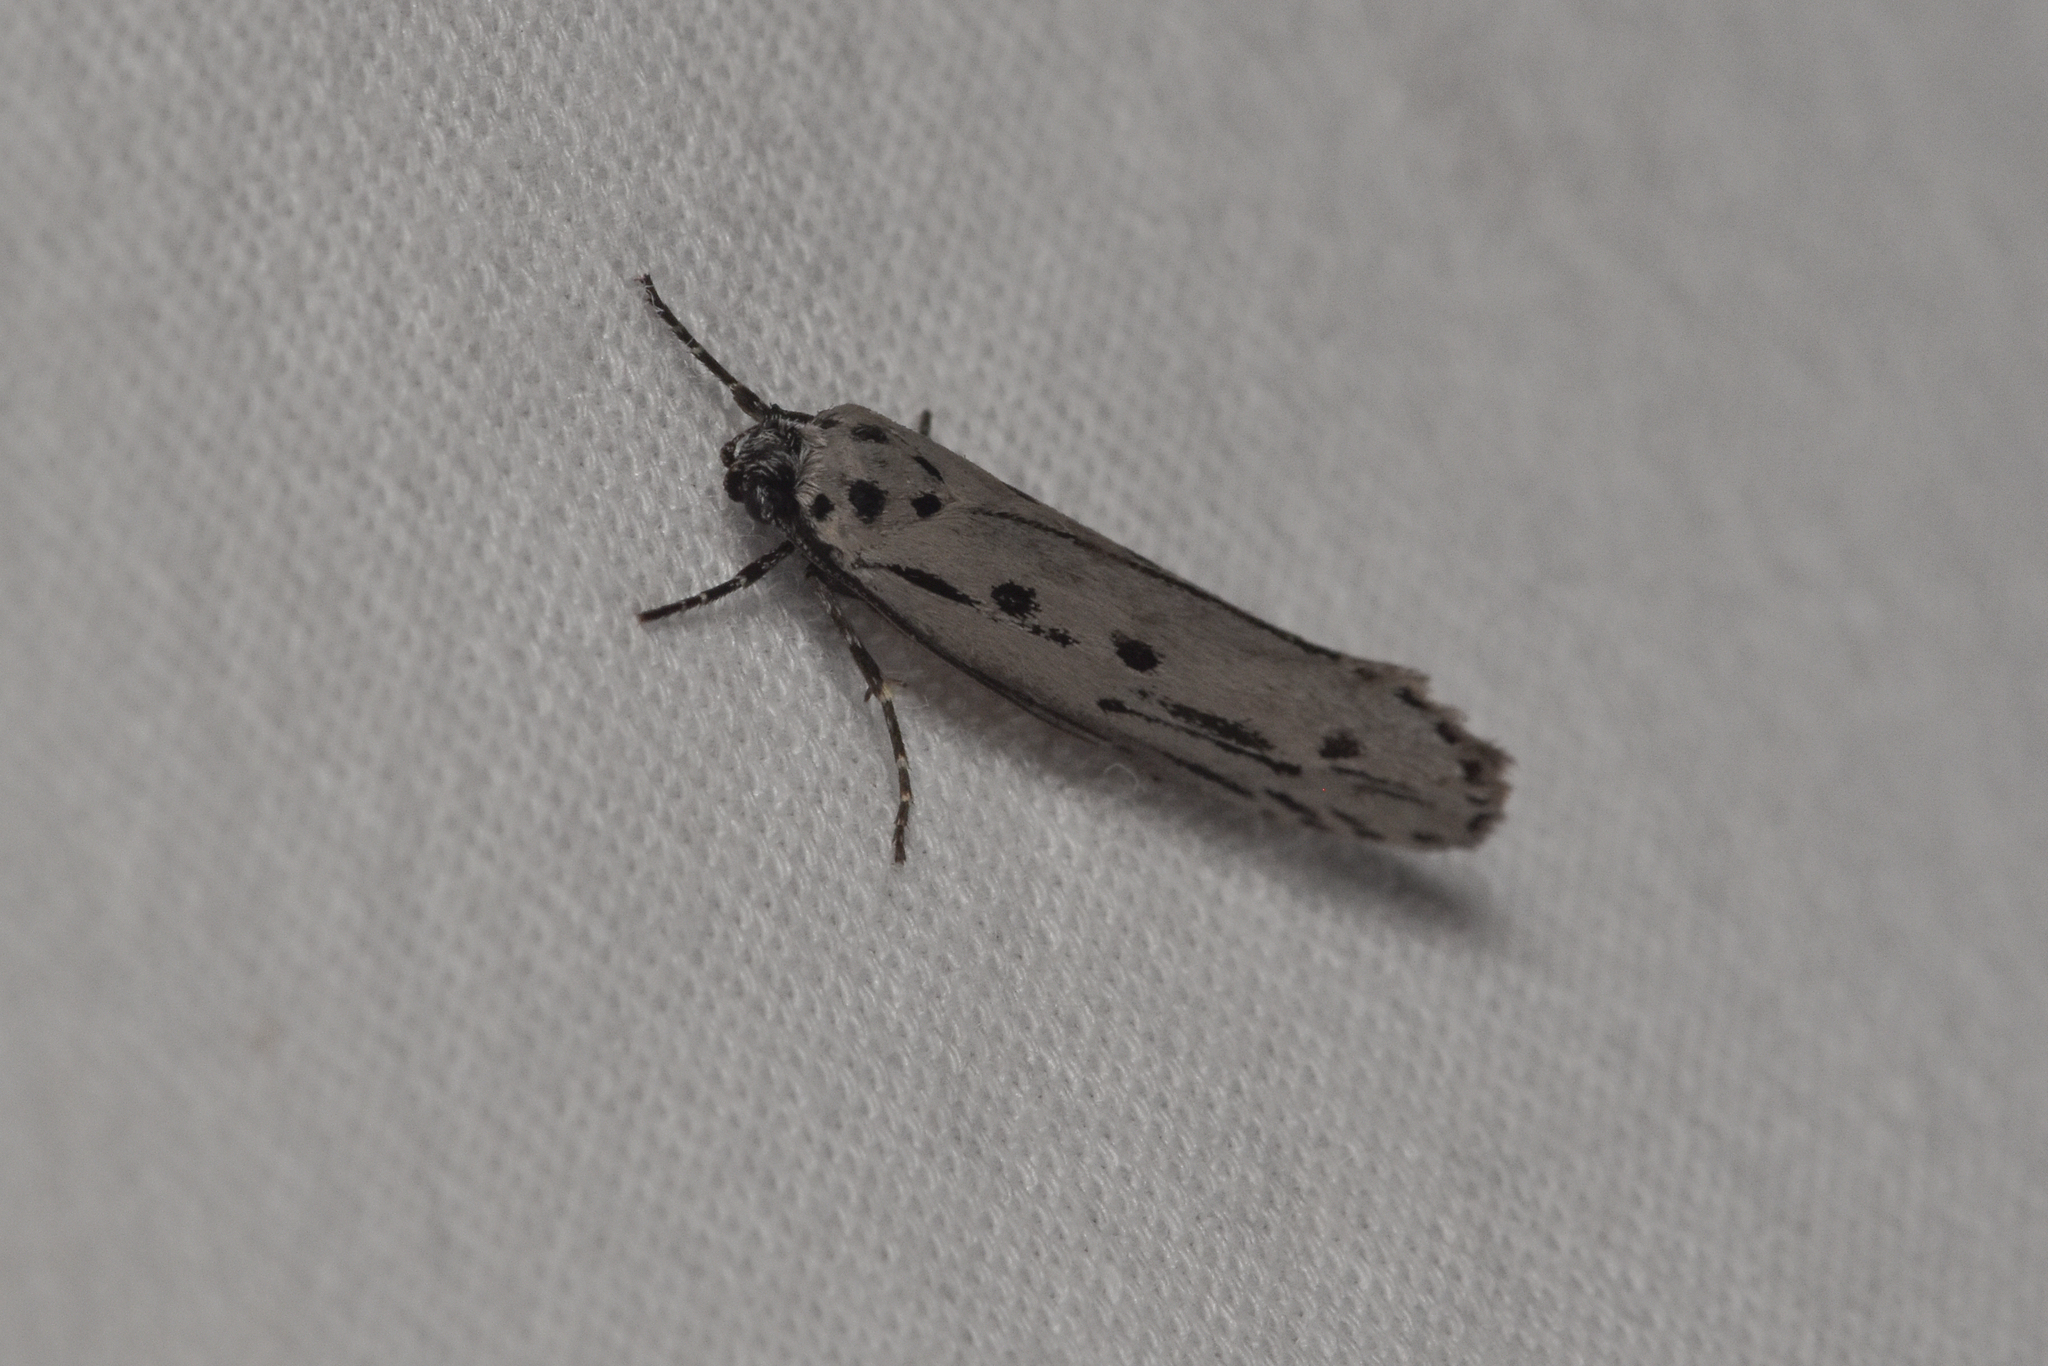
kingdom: Animalia
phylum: Arthropoda
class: Insecta
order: Lepidoptera
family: Ethmiidae
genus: Ethmia
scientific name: Ethmia monticola
